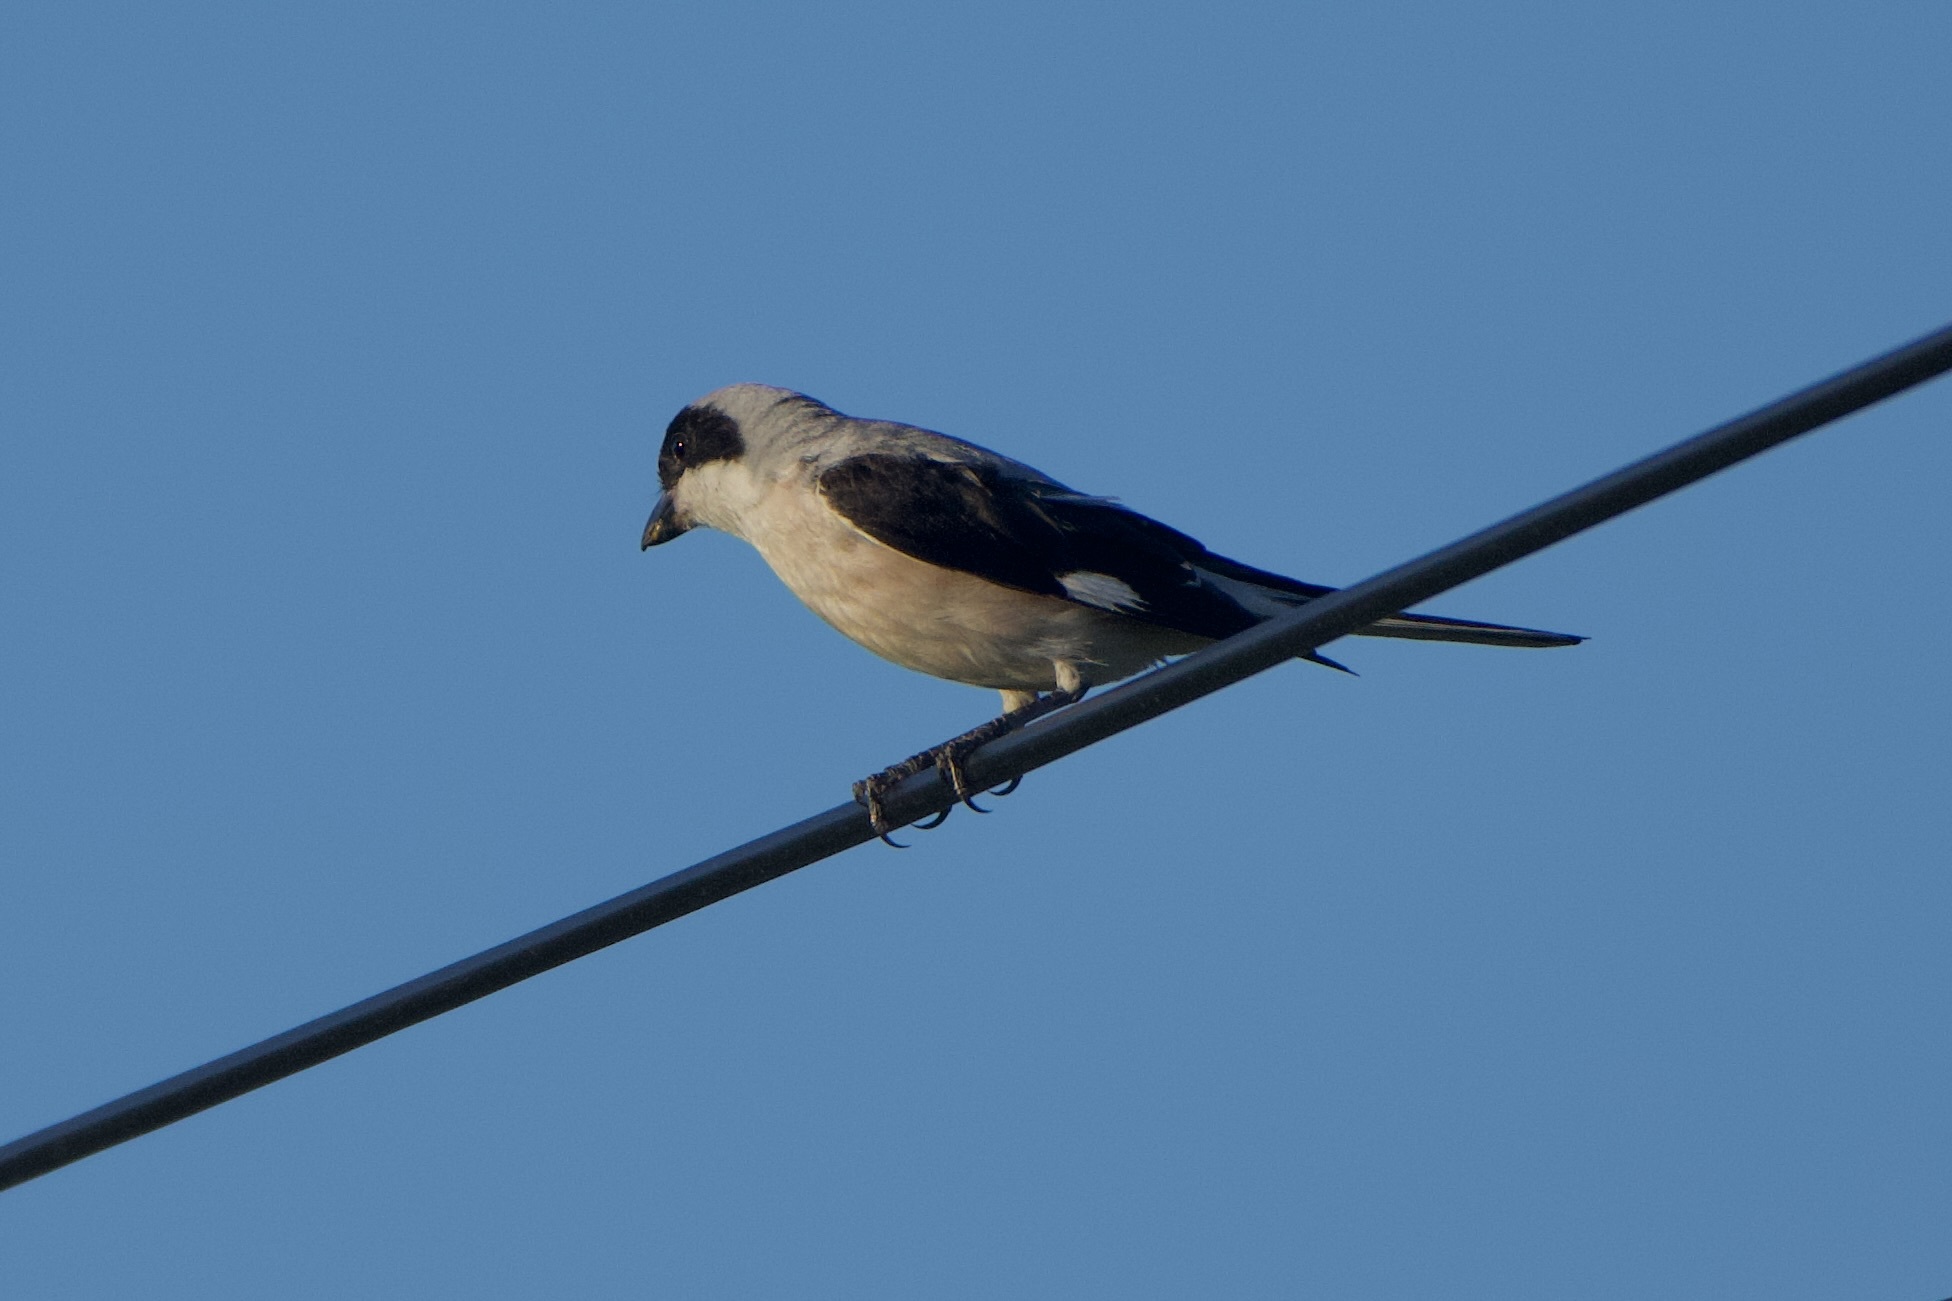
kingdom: Animalia
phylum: Chordata
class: Aves
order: Passeriformes
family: Laniidae
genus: Lanius
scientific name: Lanius minor
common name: Lesser grey shrike
